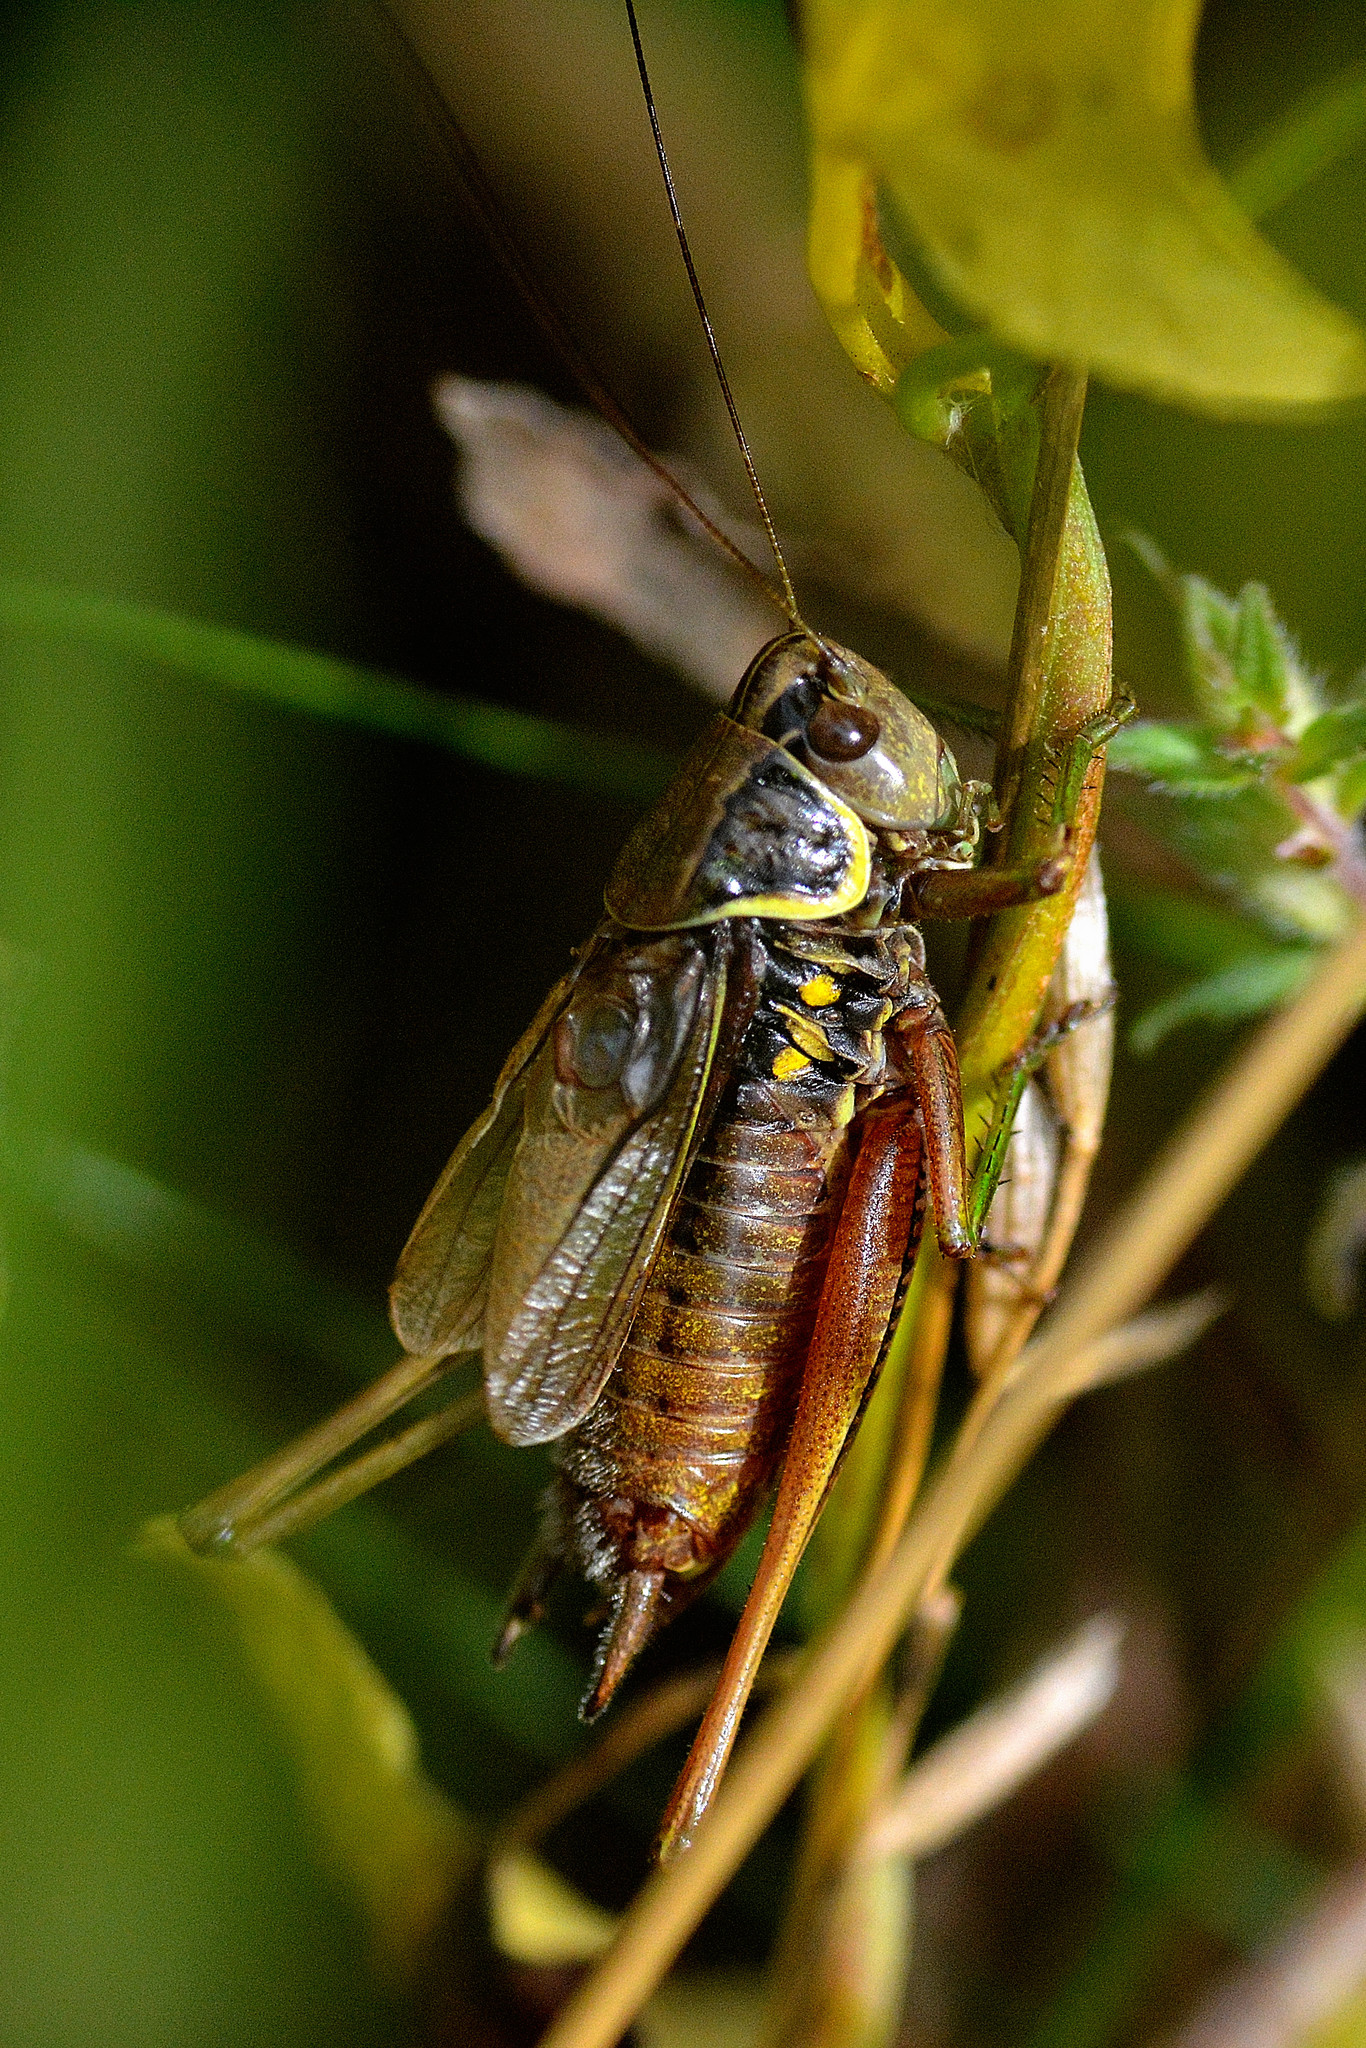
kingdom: Animalia
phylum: Arthropoda
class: Insecta
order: Orthoptera
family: Tettigoniidae
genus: Roeseliana
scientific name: Roeseliana roeselii
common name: Roesel's bush cricket
